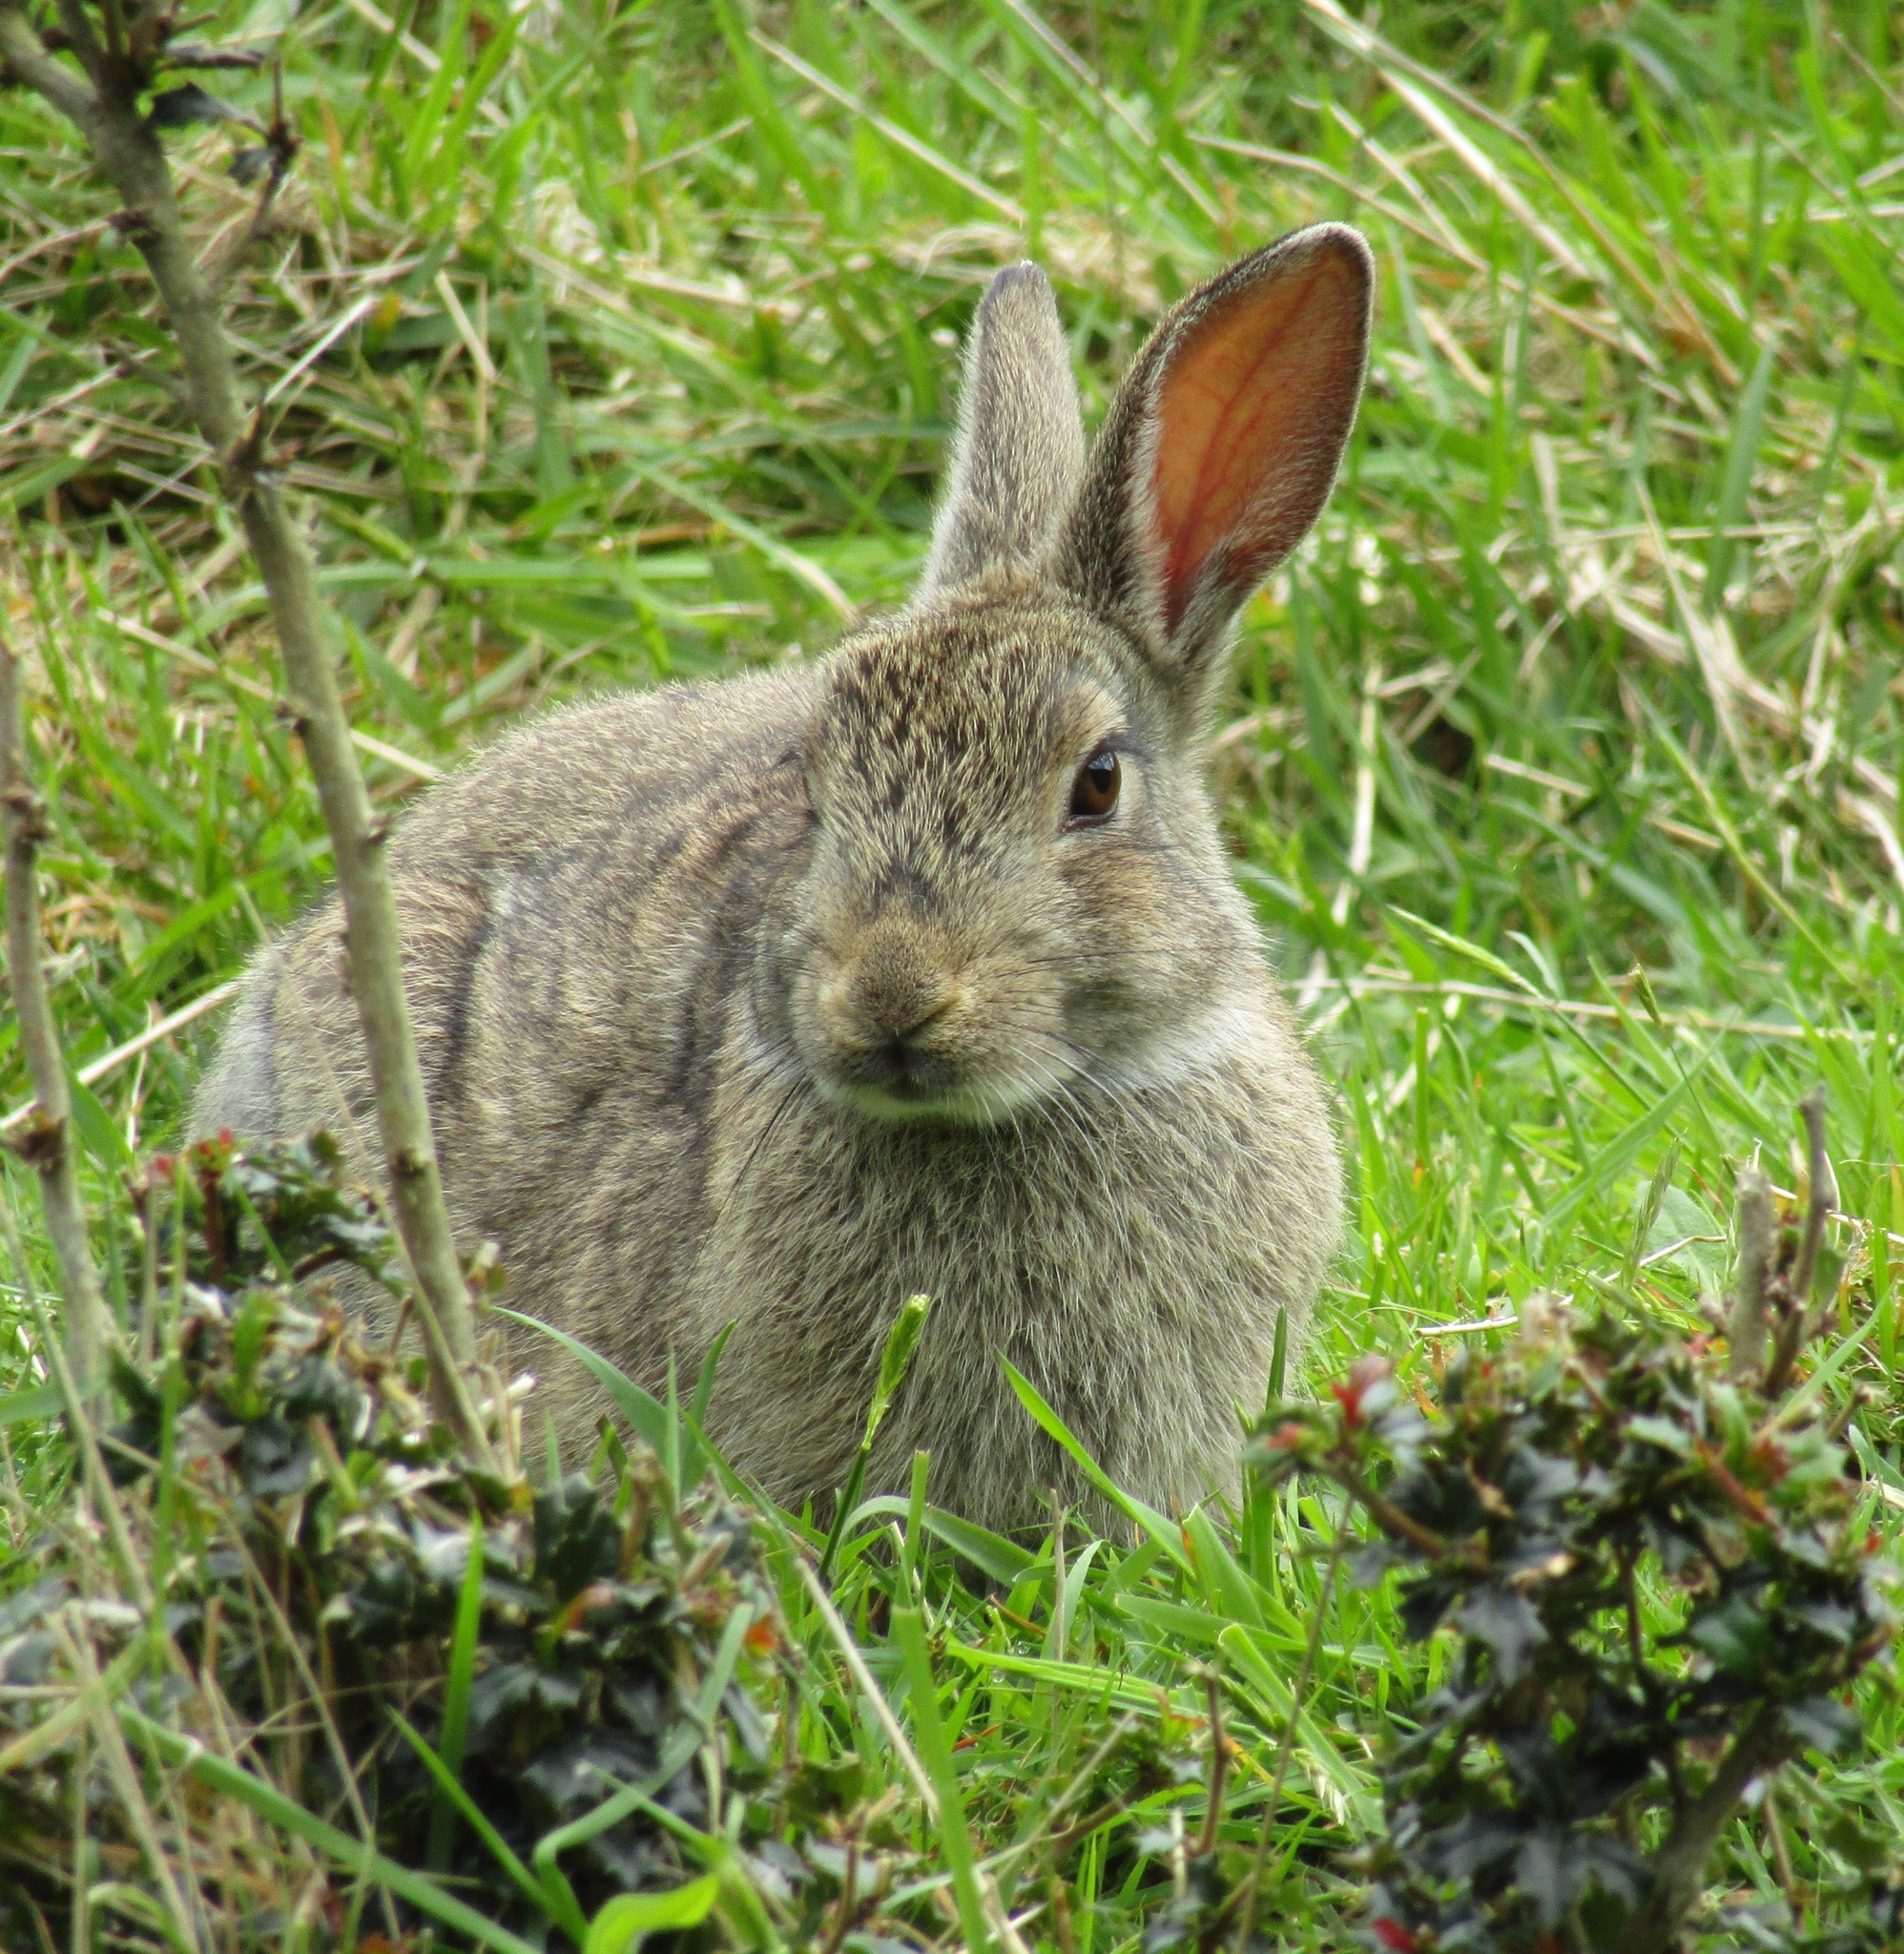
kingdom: Animalia
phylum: Chordata
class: Mammalia
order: Lagomorpha
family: Leporidae
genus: Oryctolagus
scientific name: Oryctolagus cuniculus
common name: European rabbit
